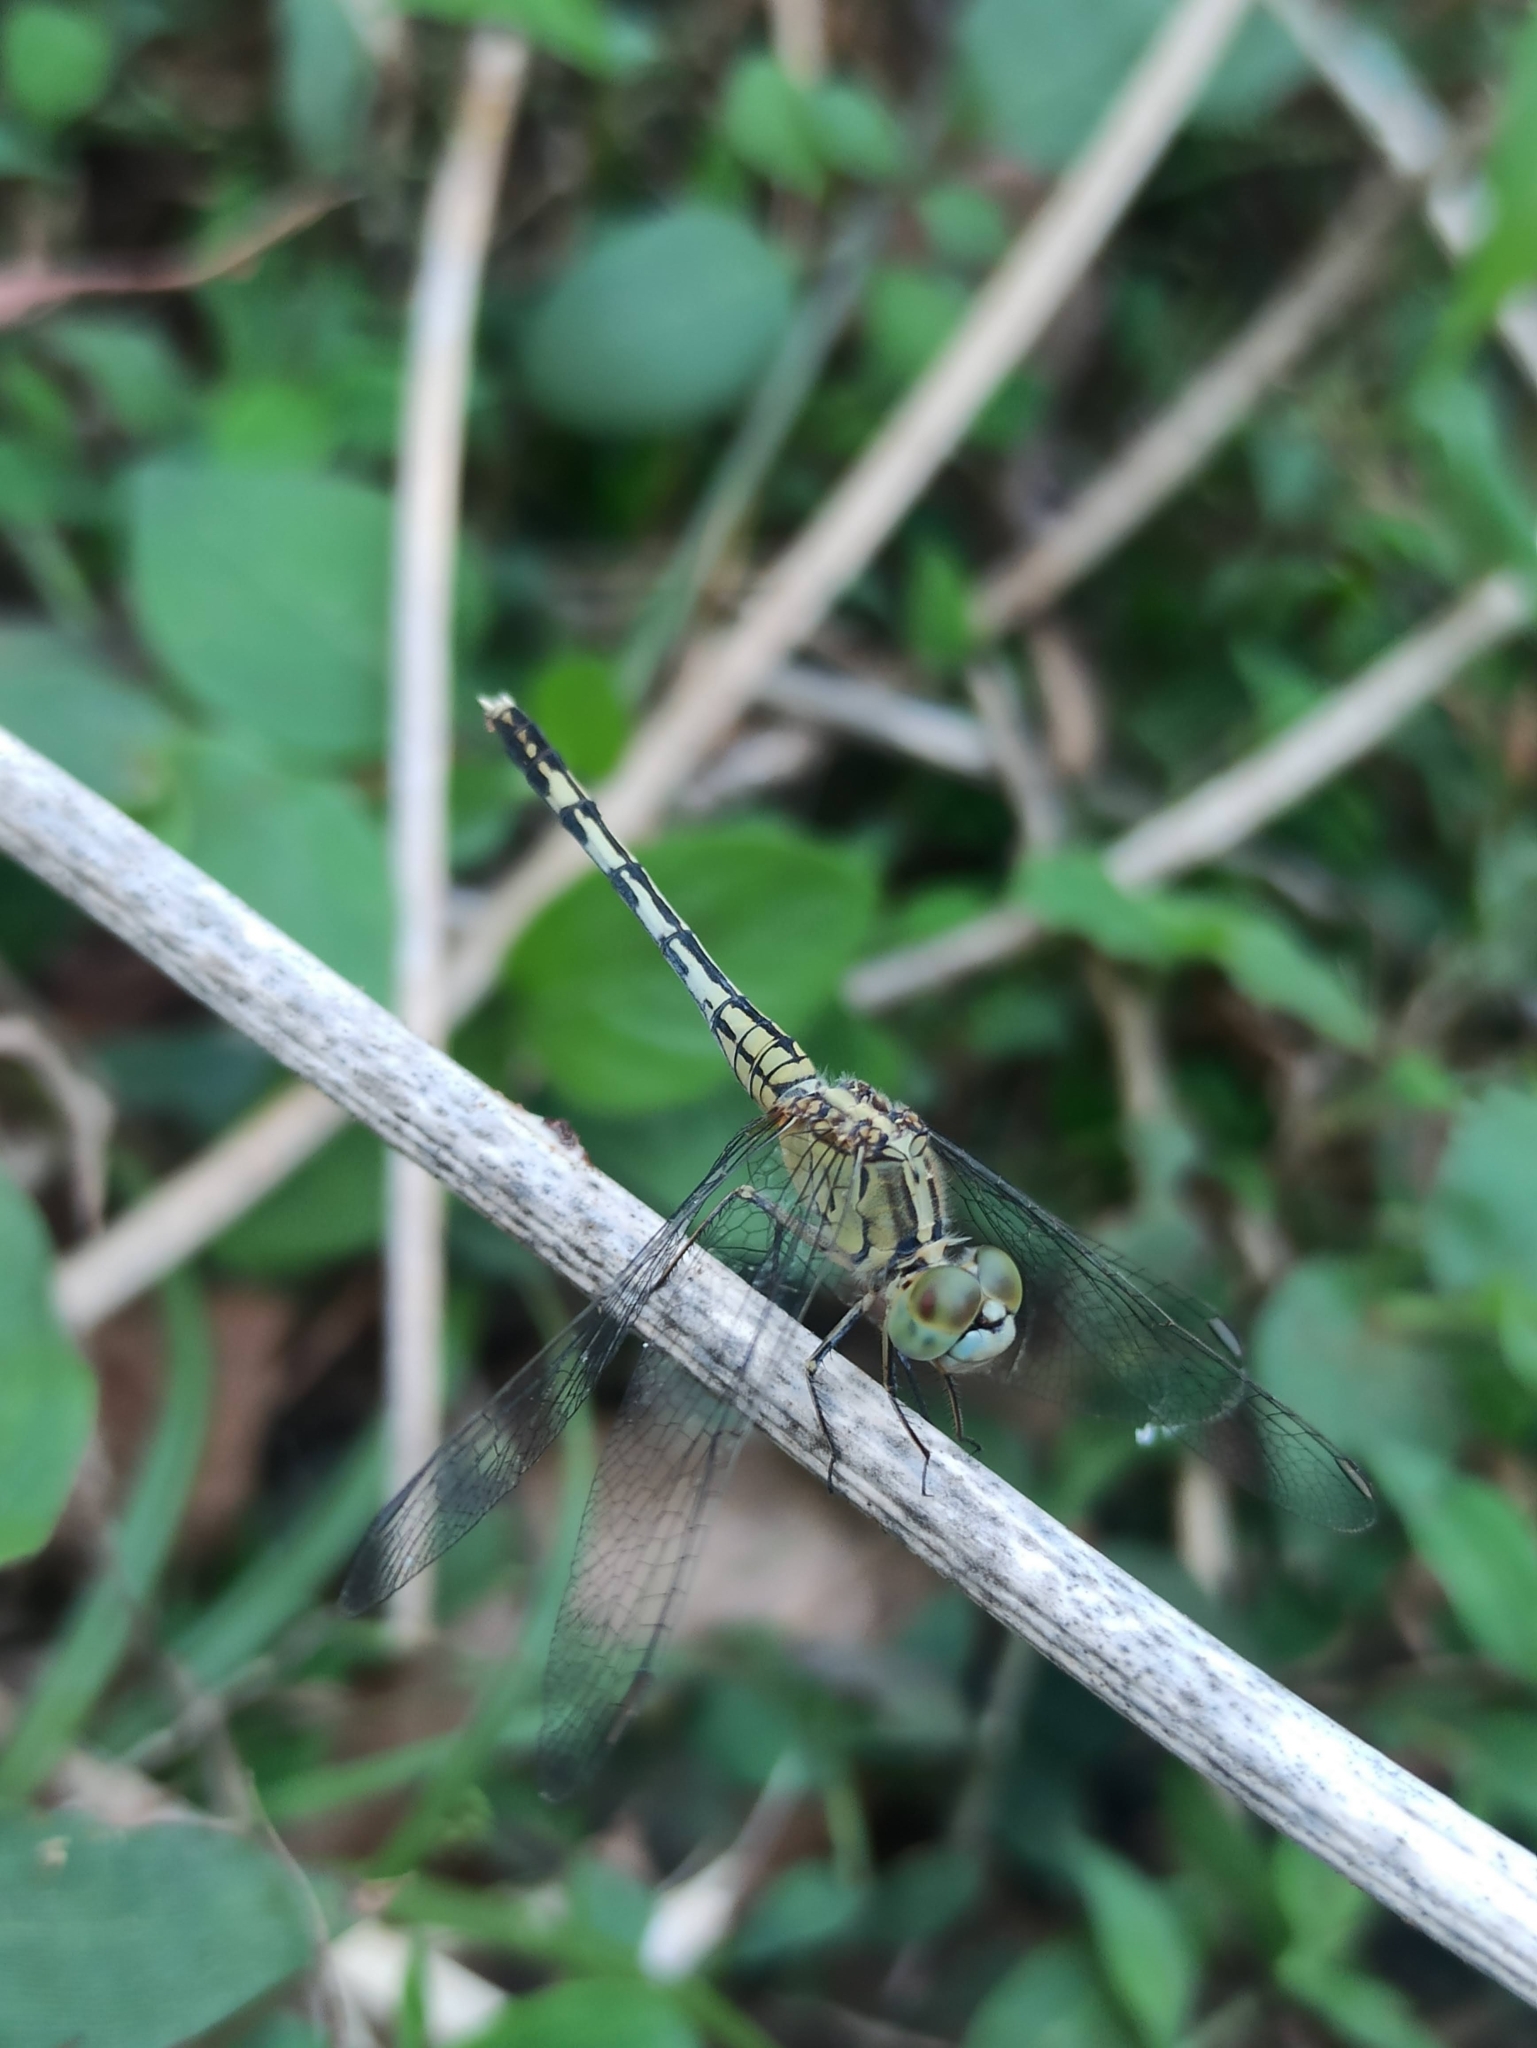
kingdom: Animalia
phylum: Arthropoda
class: Insecta
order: Odonata
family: Libellulidae
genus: Diplacodes
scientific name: Diplacodes trivialis
